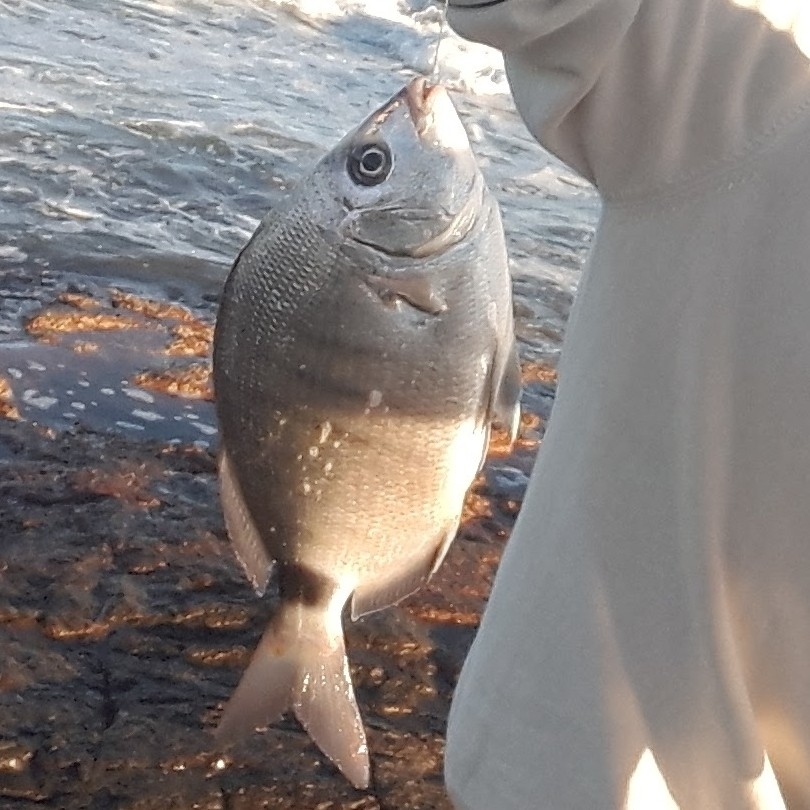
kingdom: Animalia
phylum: Chordata
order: Perciformes
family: Sparidae
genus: Diplodus
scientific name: Diplodus argenteus
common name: South-american silver porgy
